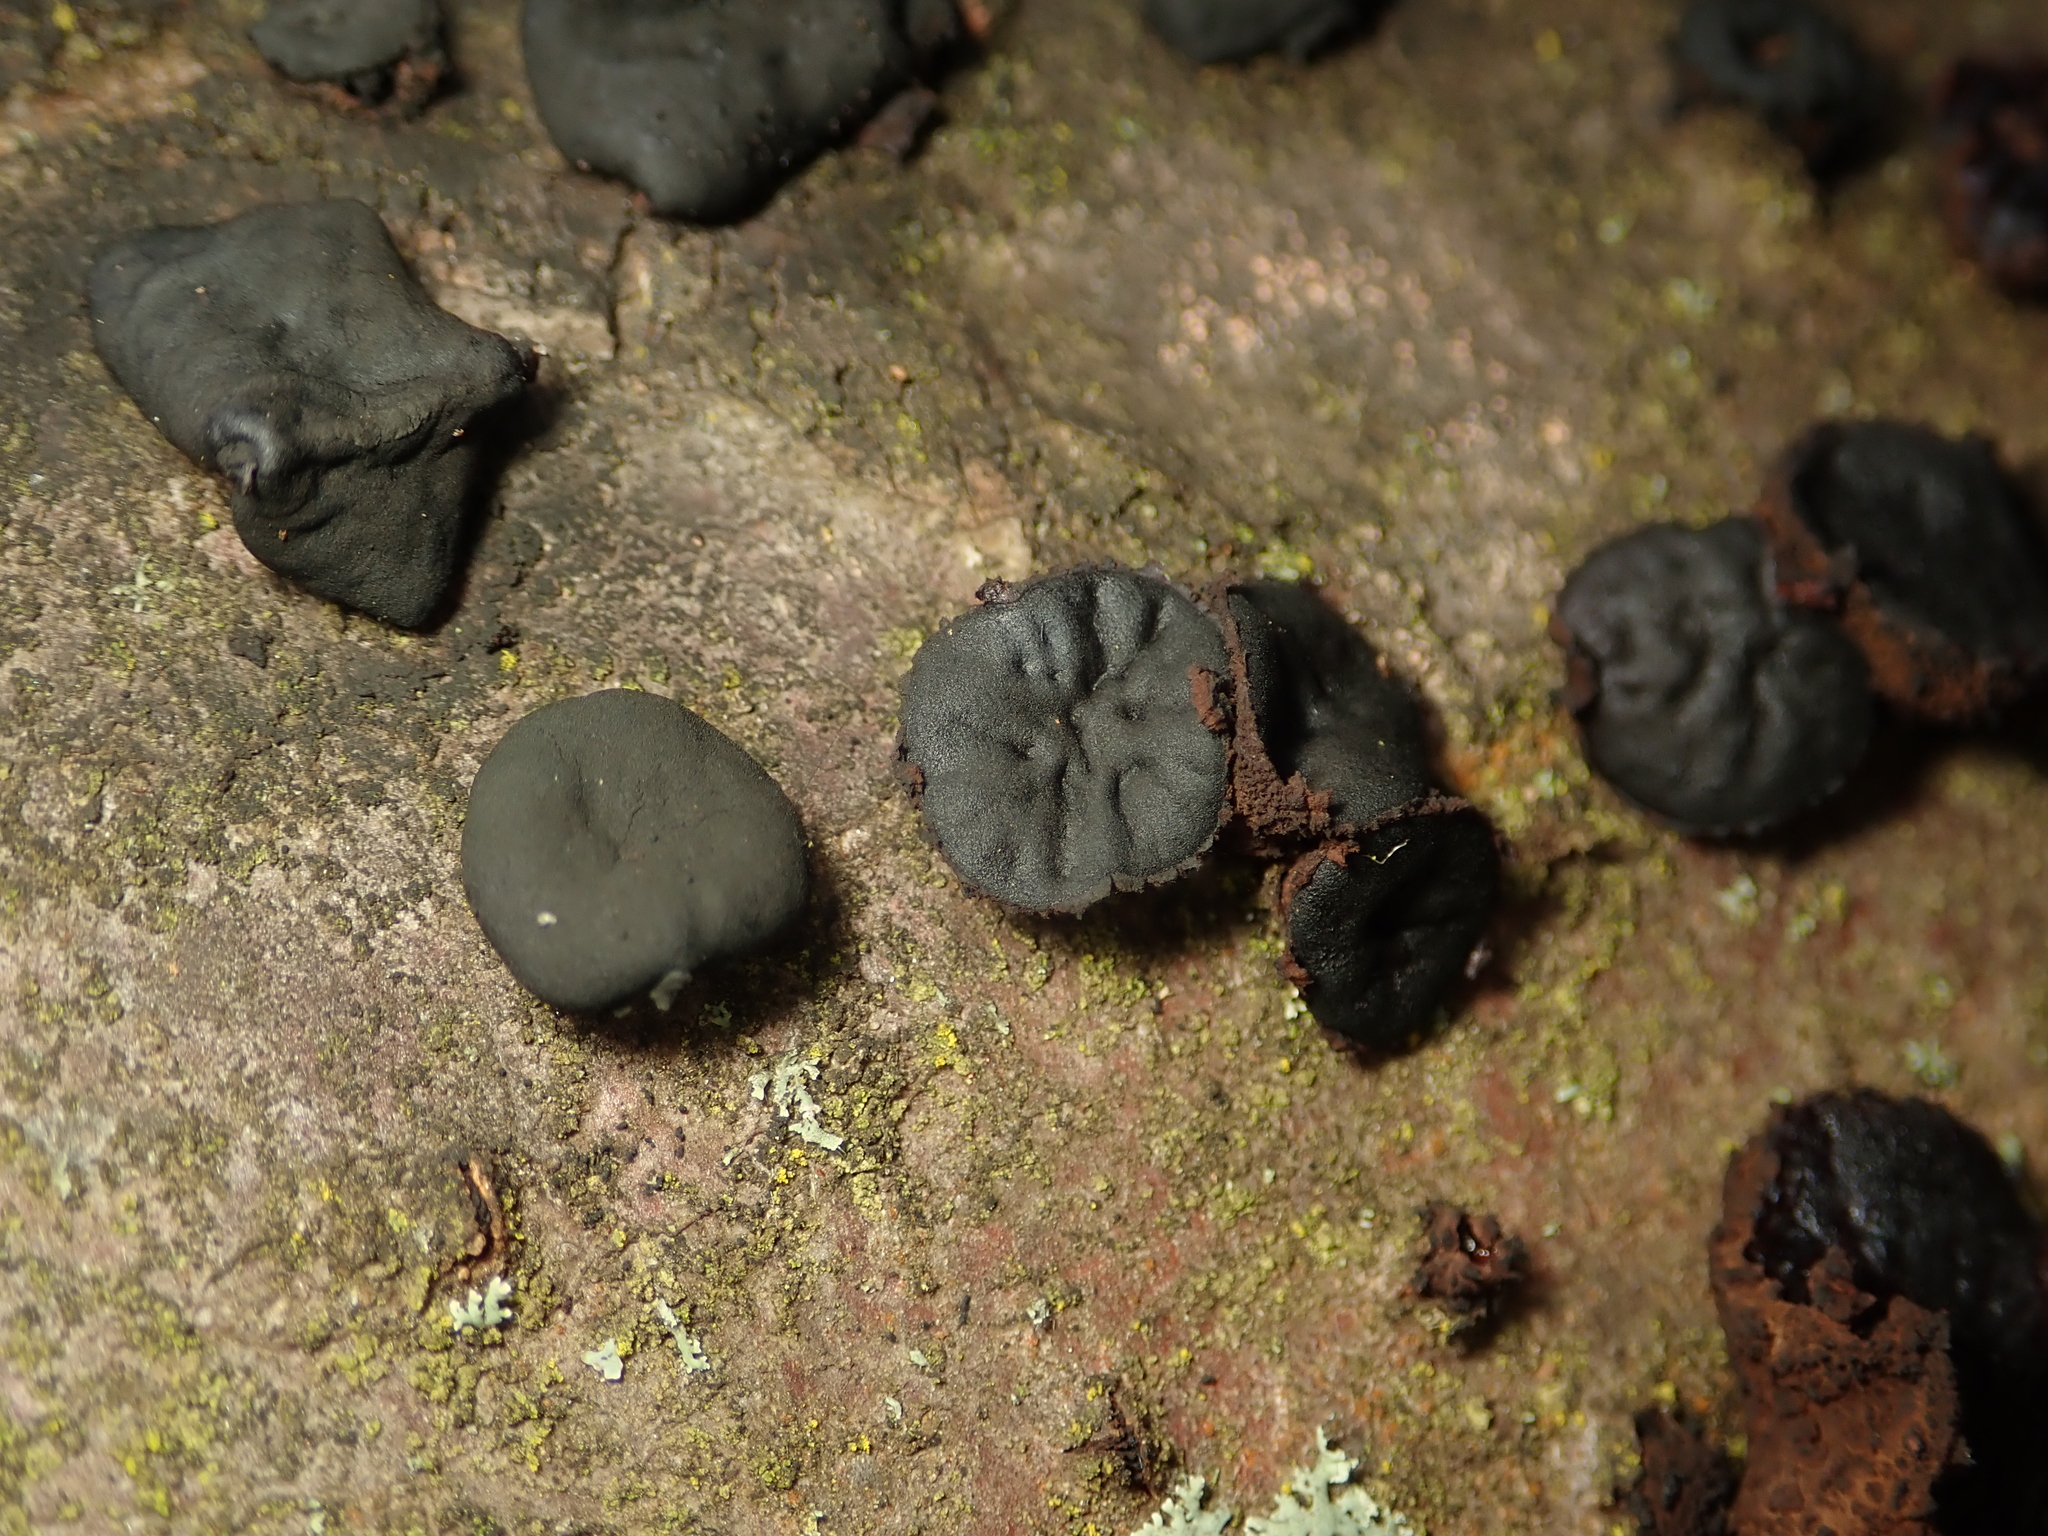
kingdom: Fungi
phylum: Ascomycota
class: Leotiomycetes
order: Phacidiales
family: Phacidiaceae
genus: Bulgaria
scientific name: Bulgaria inquinans
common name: Black bulgar
